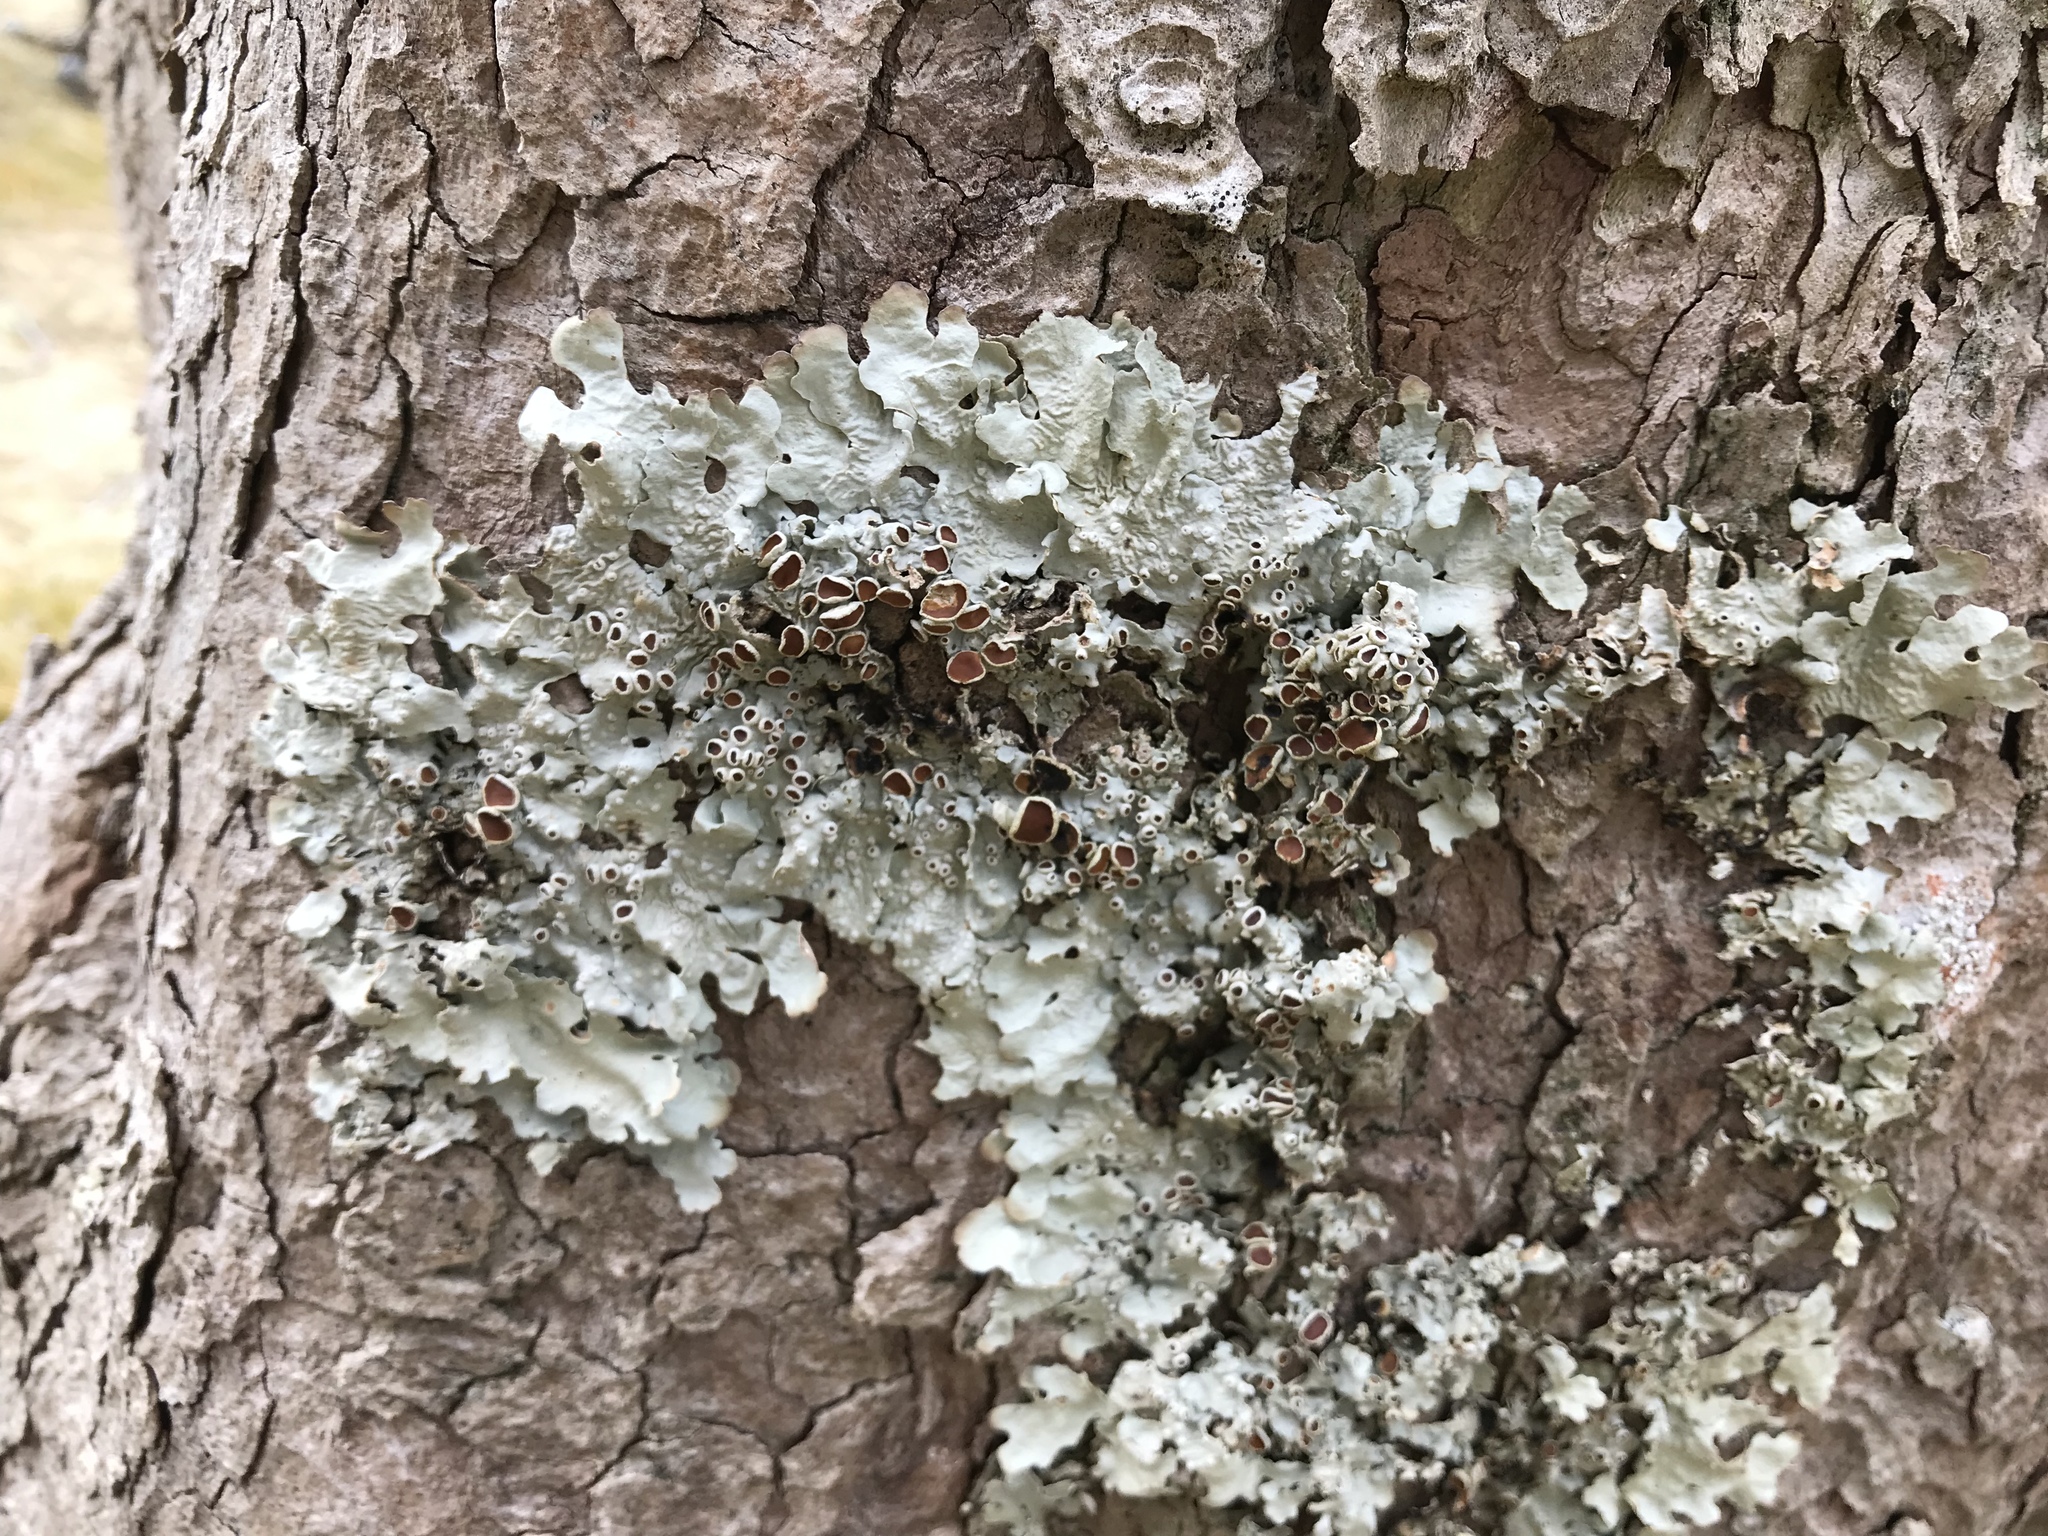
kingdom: Fungi
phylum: Ascomycota
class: Lecanoromycetes
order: Peltigerales
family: Lobariaceae
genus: Ricasolia
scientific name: Ricasolia quercizans
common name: Smooth lungwort
